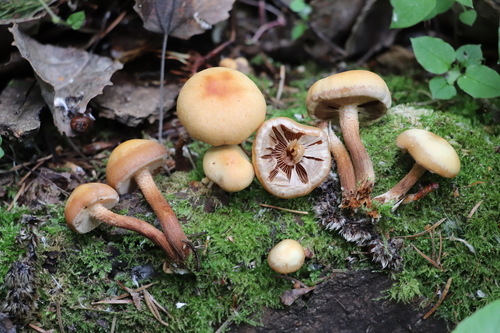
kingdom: Fungi
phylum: Basidiomycota
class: Agaricomycetes
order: Agaricales
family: Strophariaceae
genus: Kuehneromyces
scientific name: Kuehneromyces mutabilis
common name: Sheathed woodtuft
